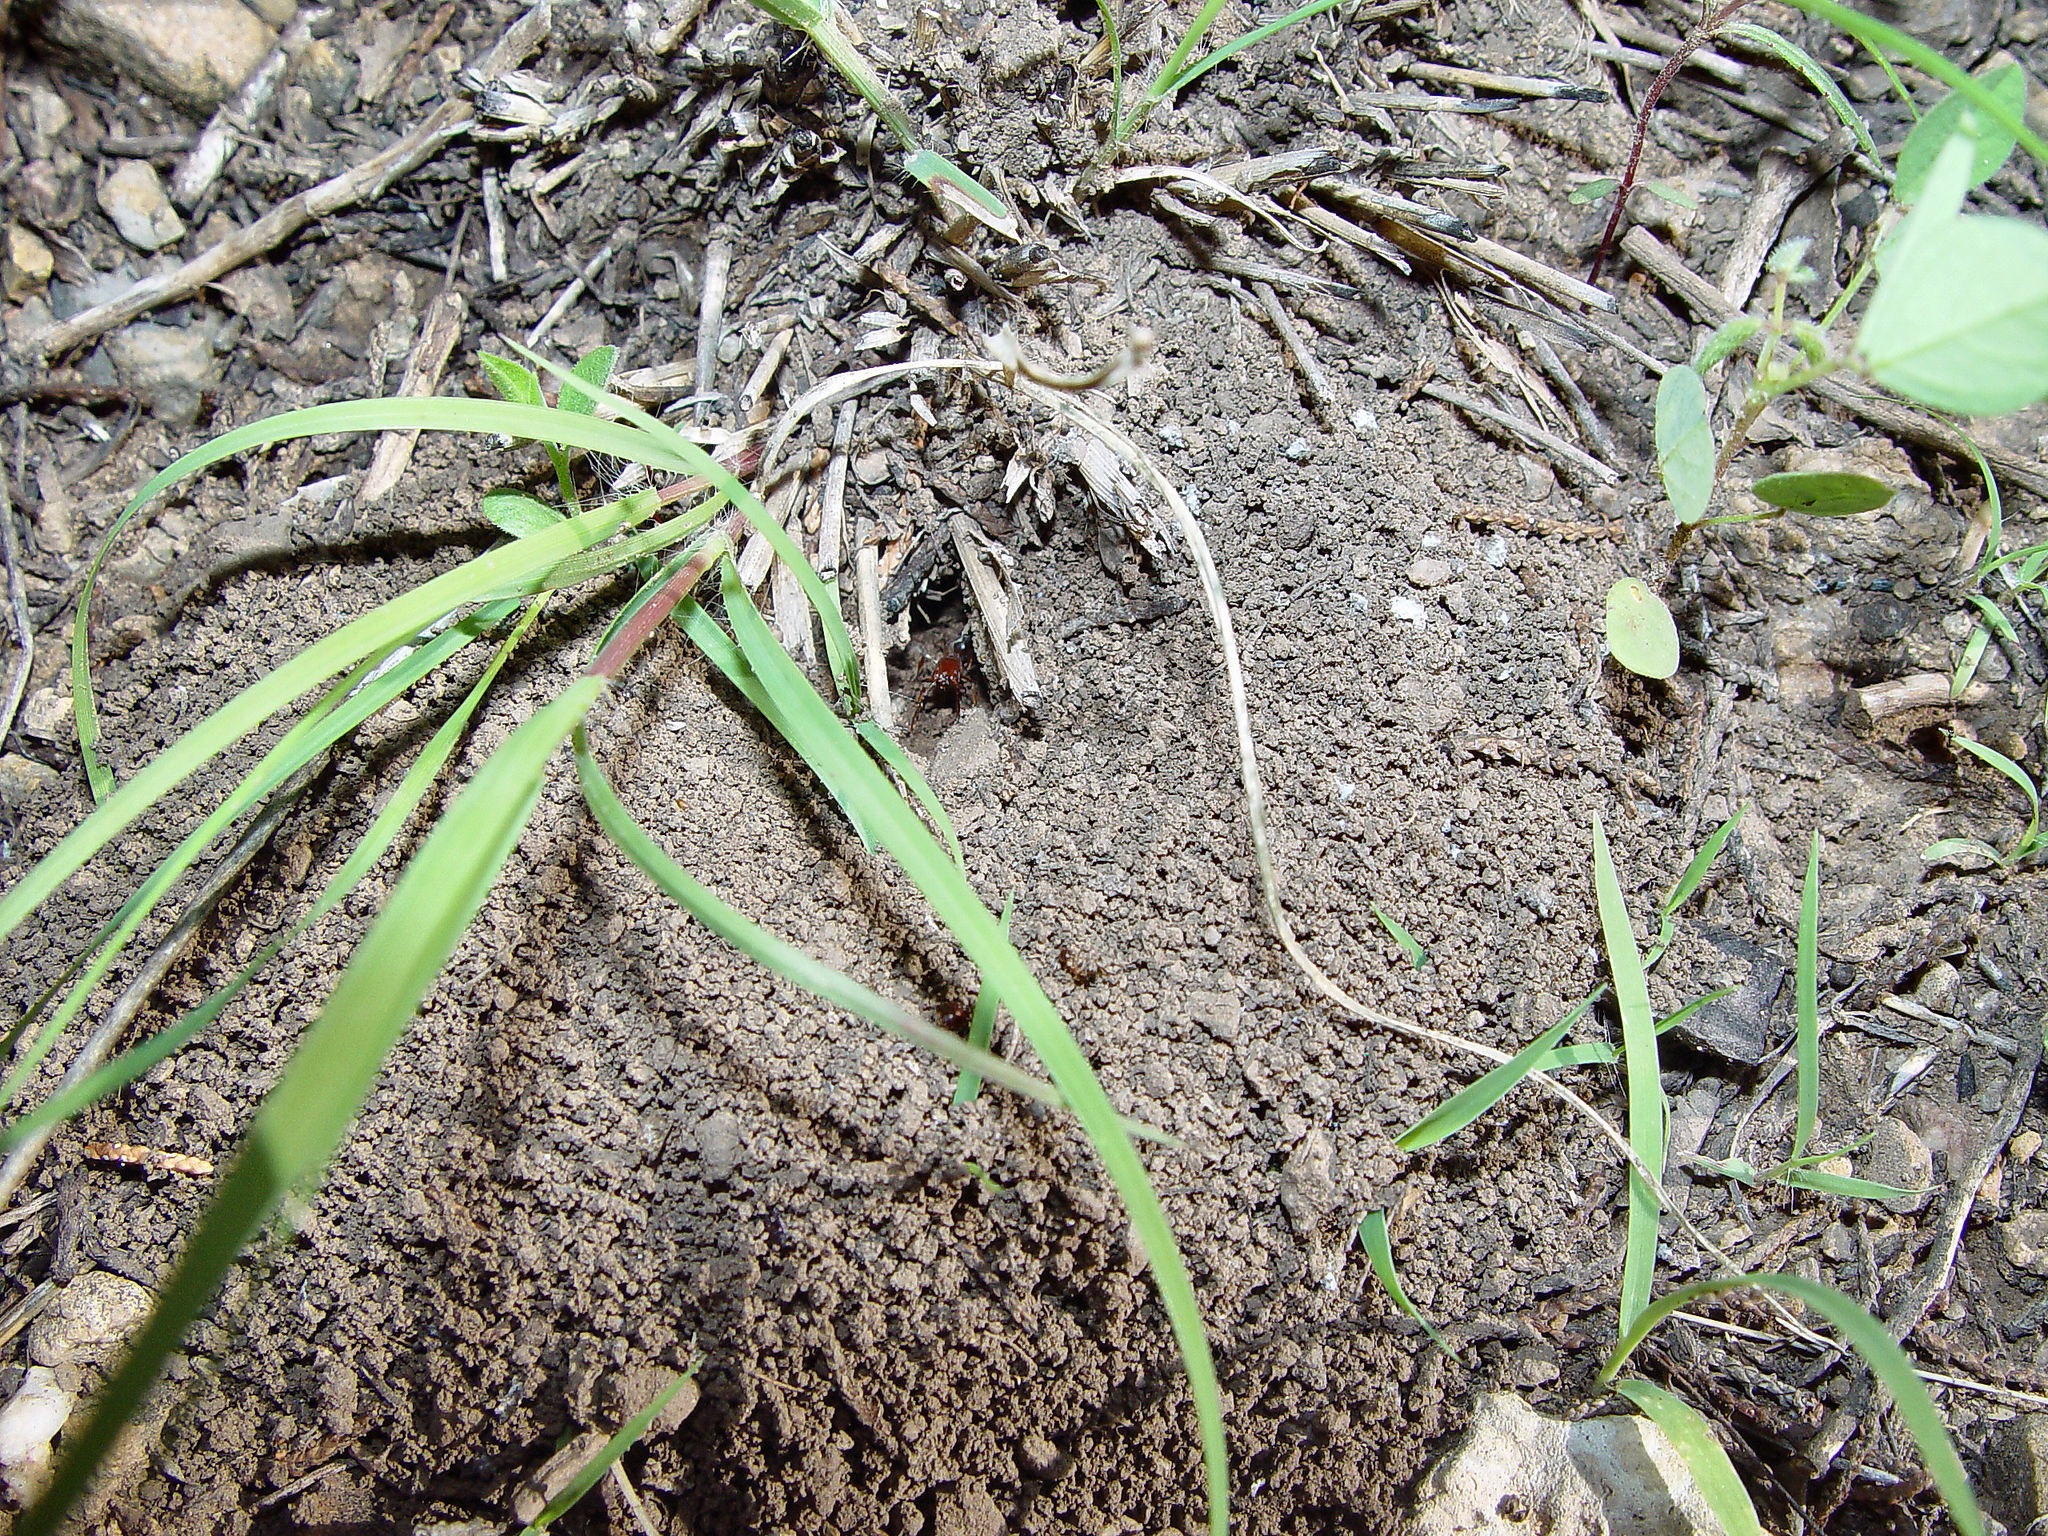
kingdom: Animalia
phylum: Arthropoda
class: Insecta
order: Hymenoptera
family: Formicidae
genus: Odontomachus
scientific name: Odontomachus clarus
